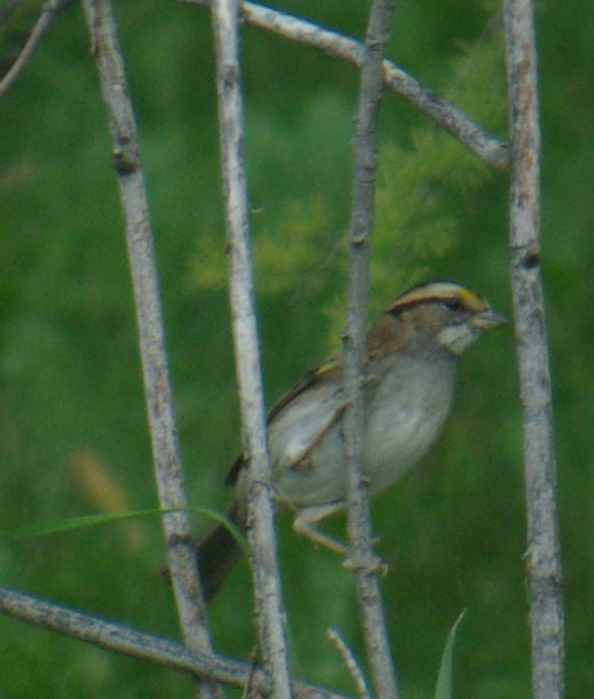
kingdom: Animalia
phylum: Chordata
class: Aves
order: Passeriformes
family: Passerellidae
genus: Zonotrichia
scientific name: Zonotrichia albicollis
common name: White-throated sparrow
